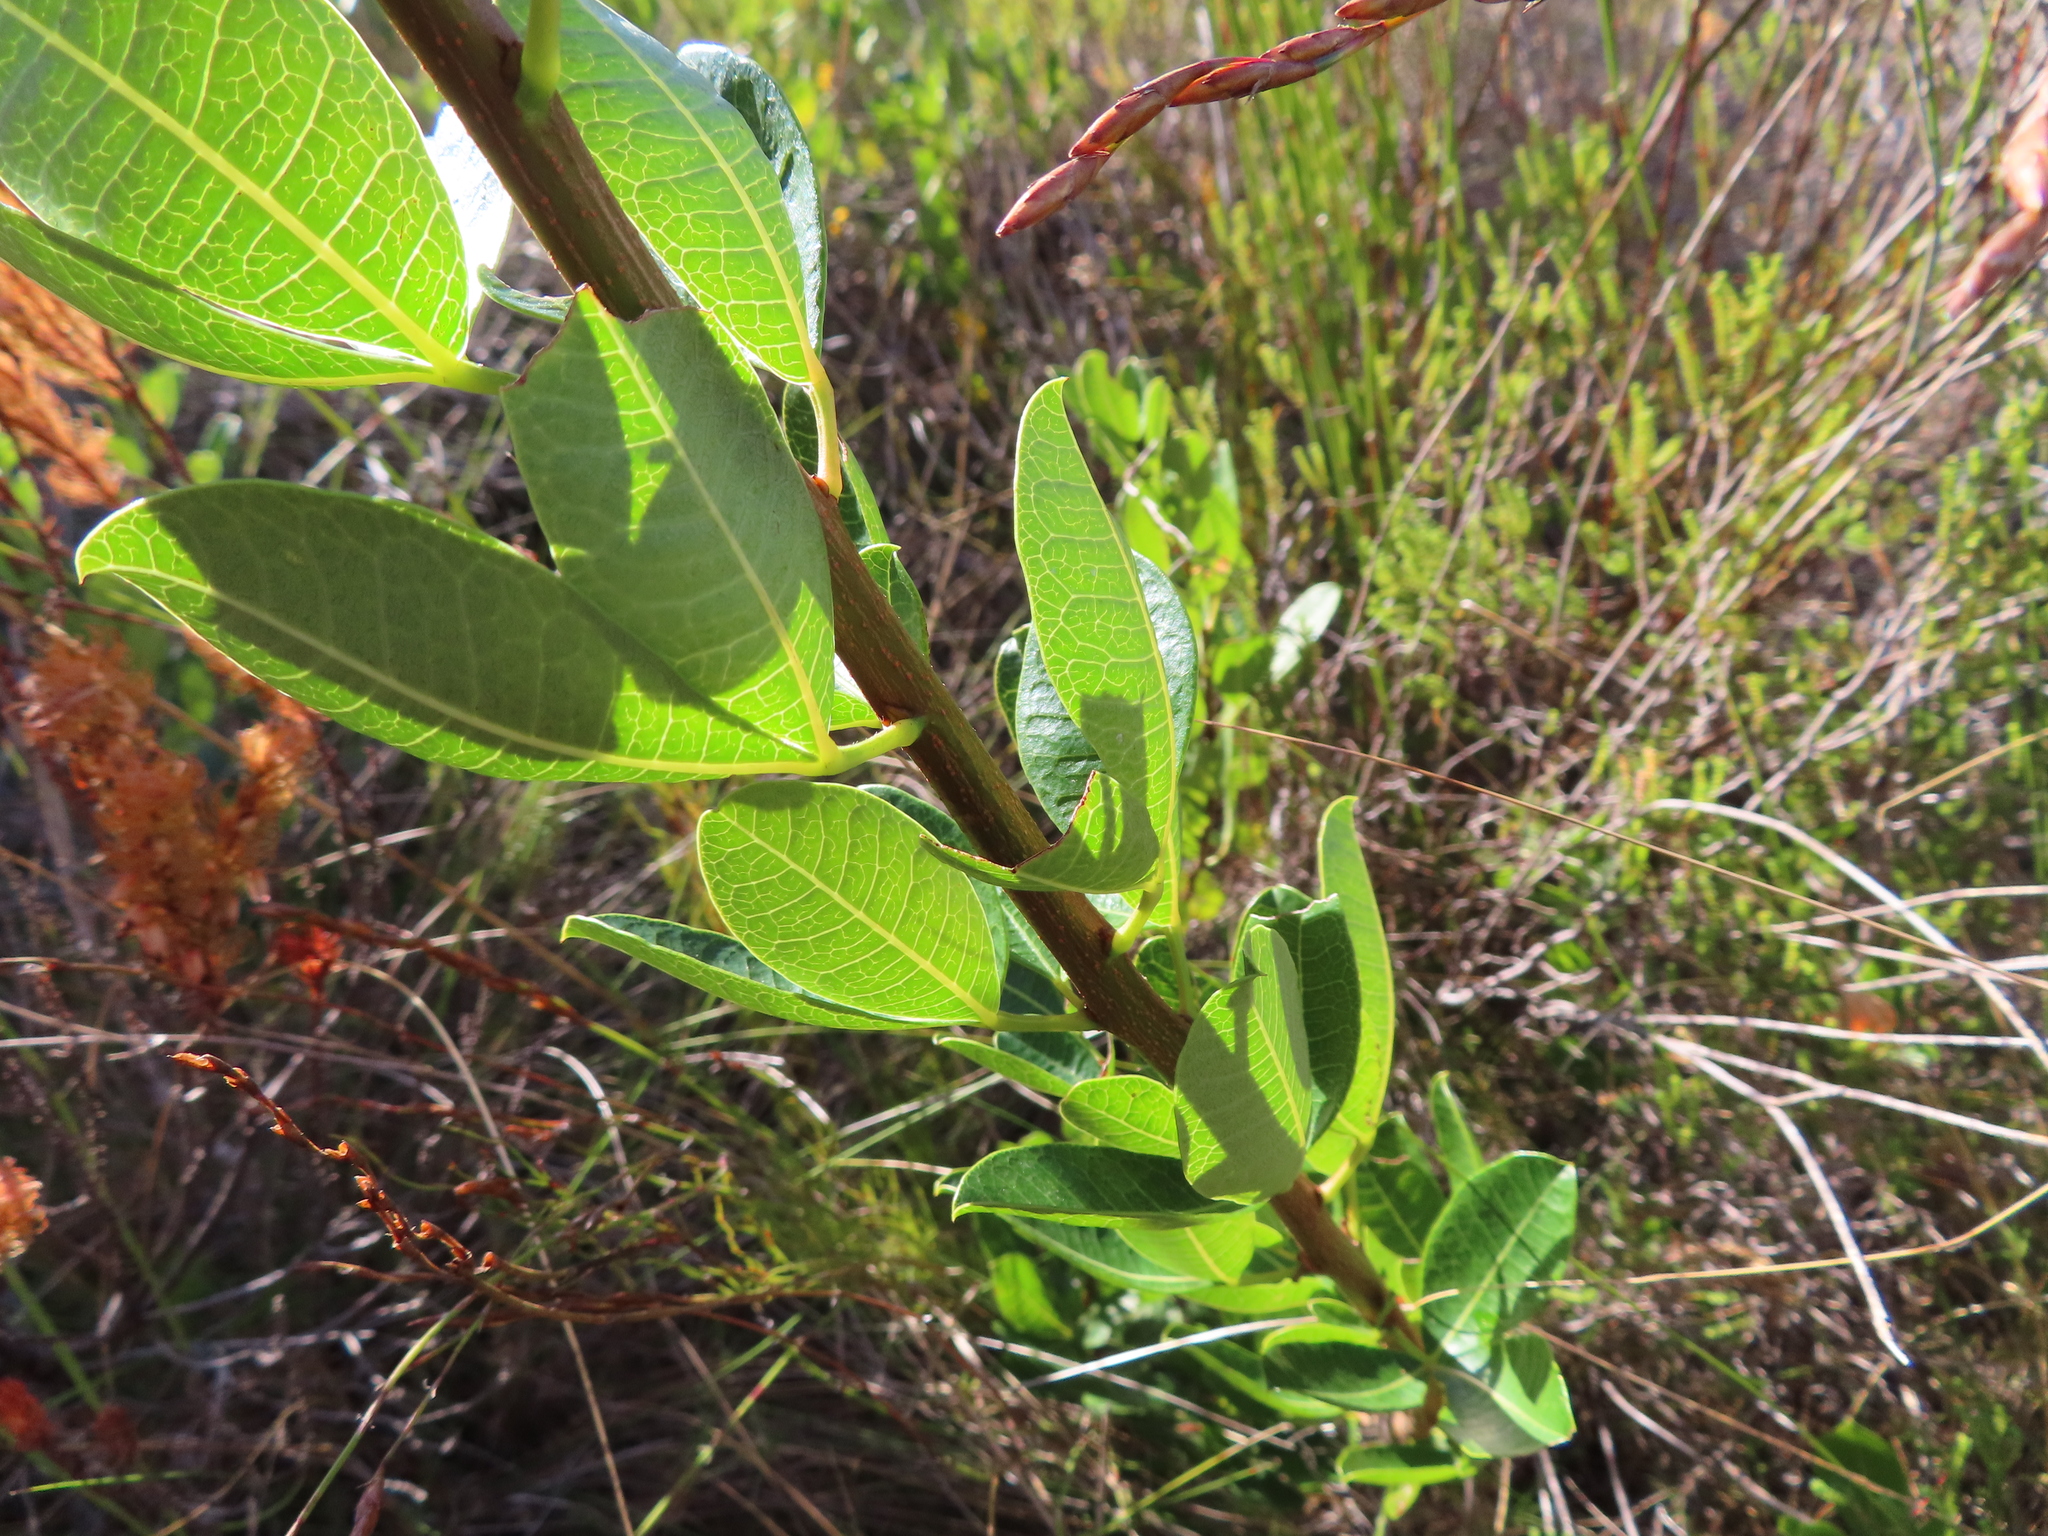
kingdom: Plantae
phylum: Tracheophyta
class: Magnoliopsida
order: Sapindales
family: Anacardiaceae
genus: Searsia
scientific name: Searsia laevigata
